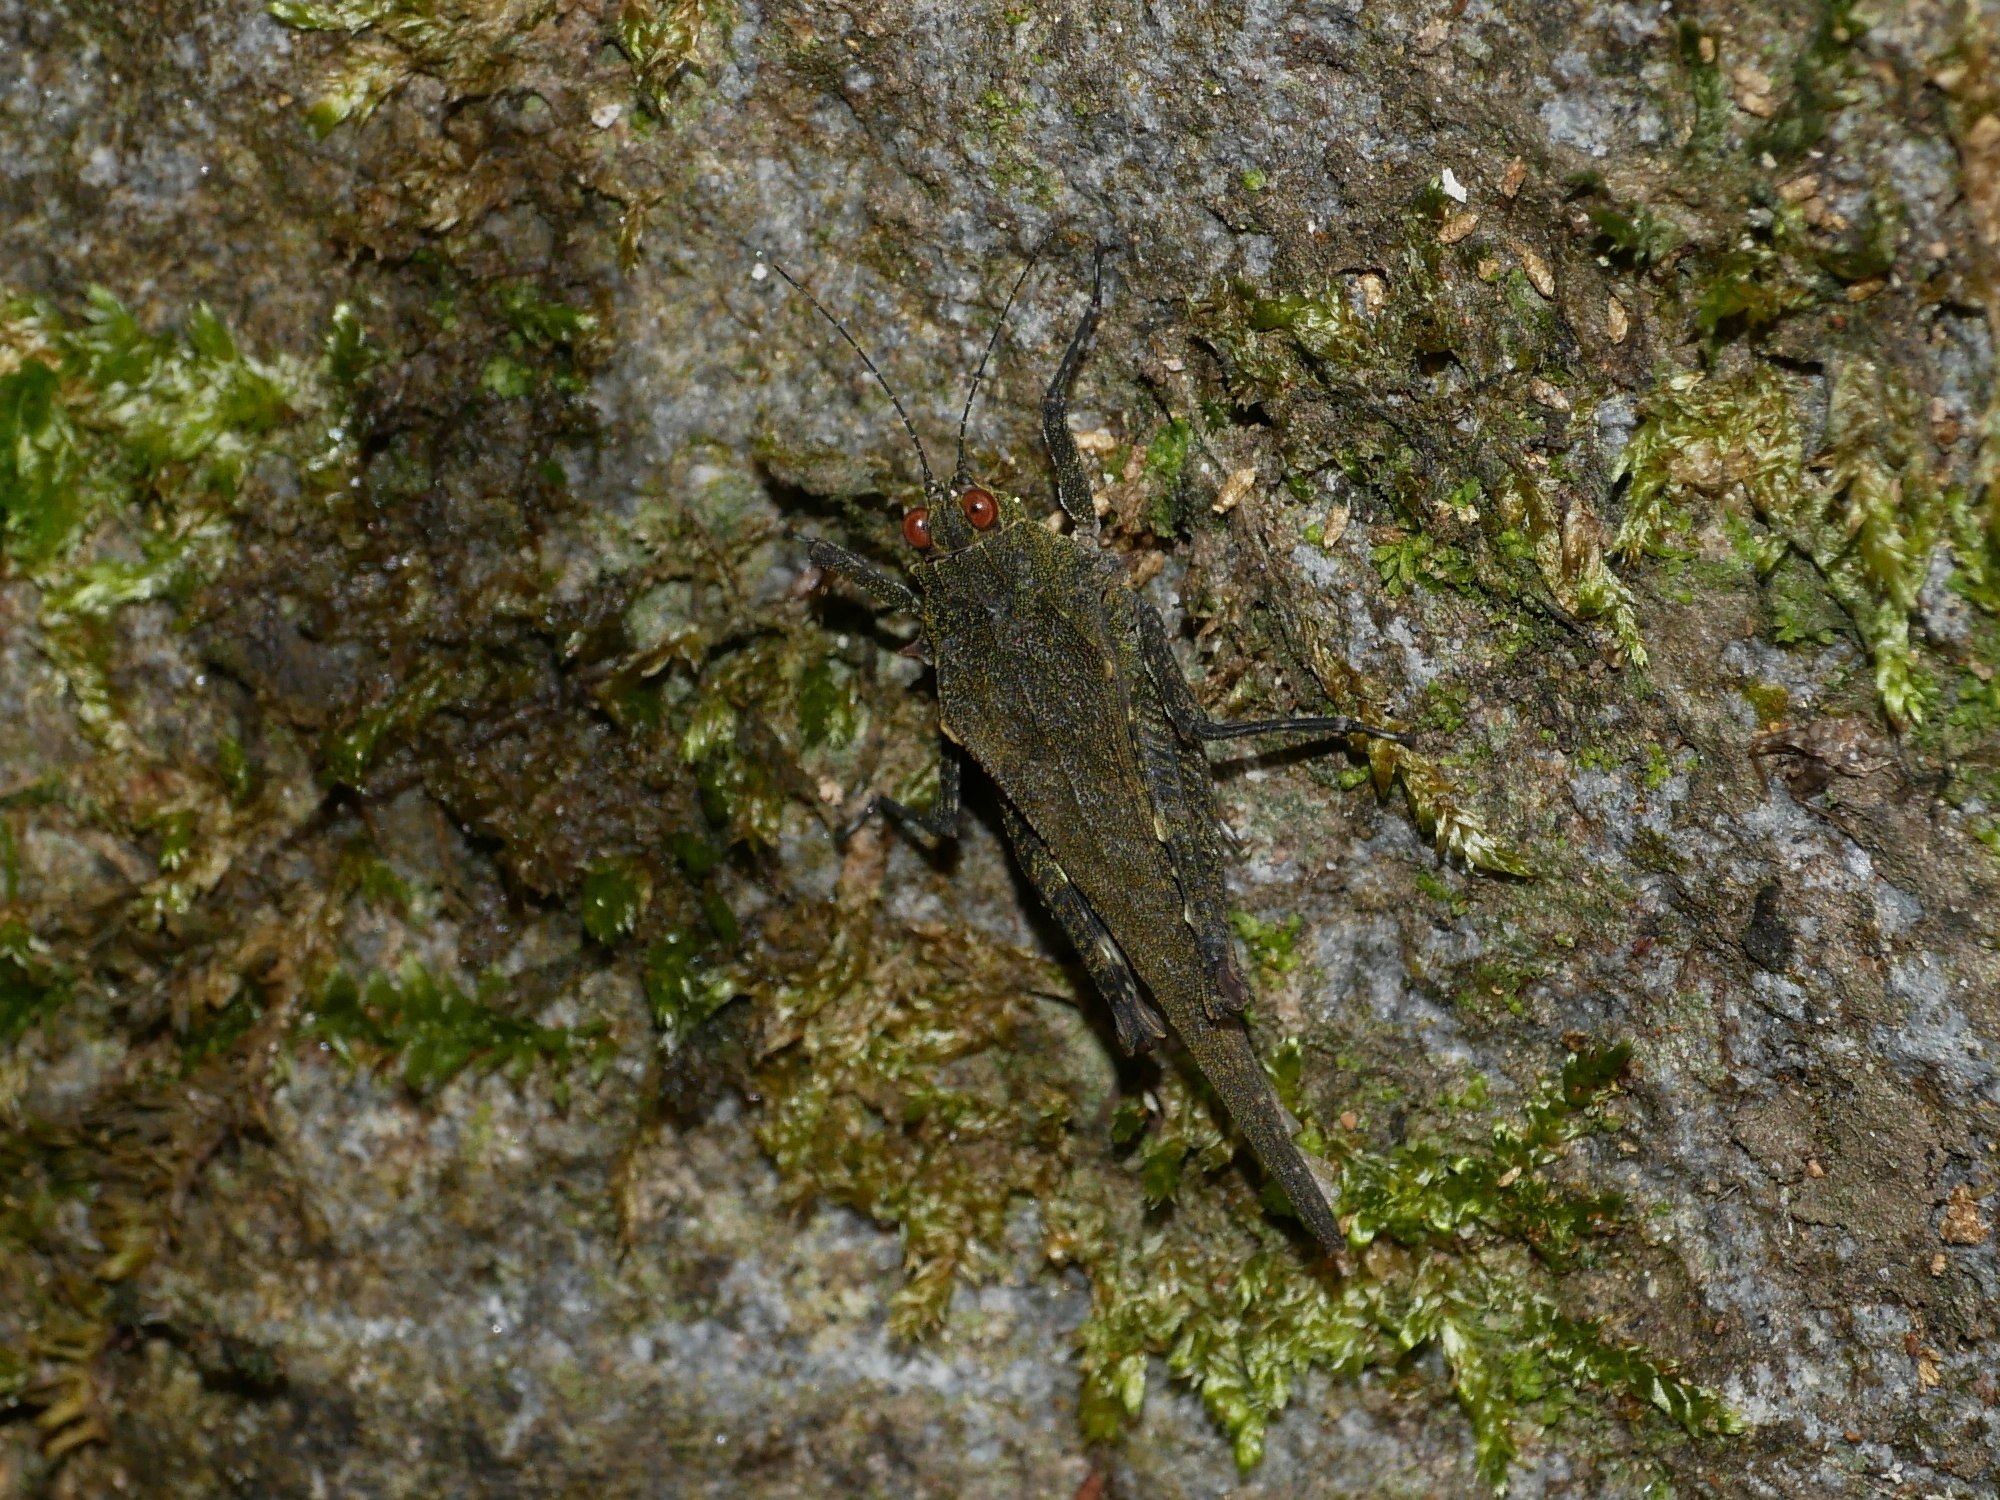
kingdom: Animalia
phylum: Arthropoda
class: Insecta
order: Orthoptera
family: Tetrigidae
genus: Platygavialidium
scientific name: Platygavialidium formosanum
